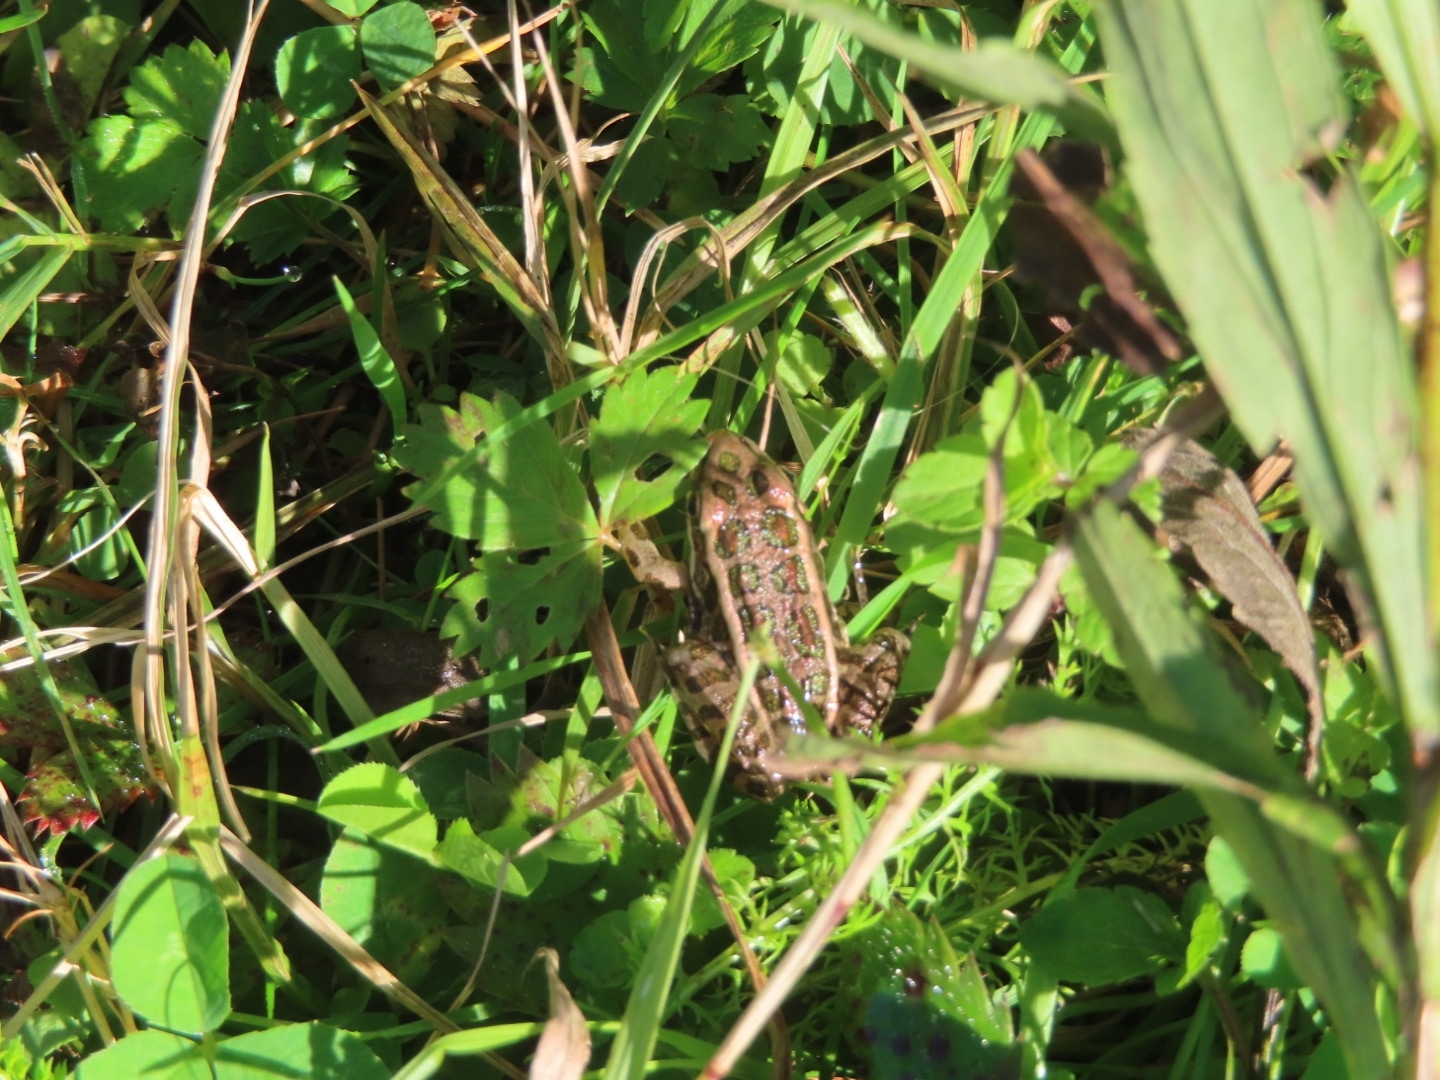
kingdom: Animalia
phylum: Chordata
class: Amphibia
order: Anura
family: Ranidae
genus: Lithobates
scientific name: Lithobates palustris
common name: Pickerel frog
